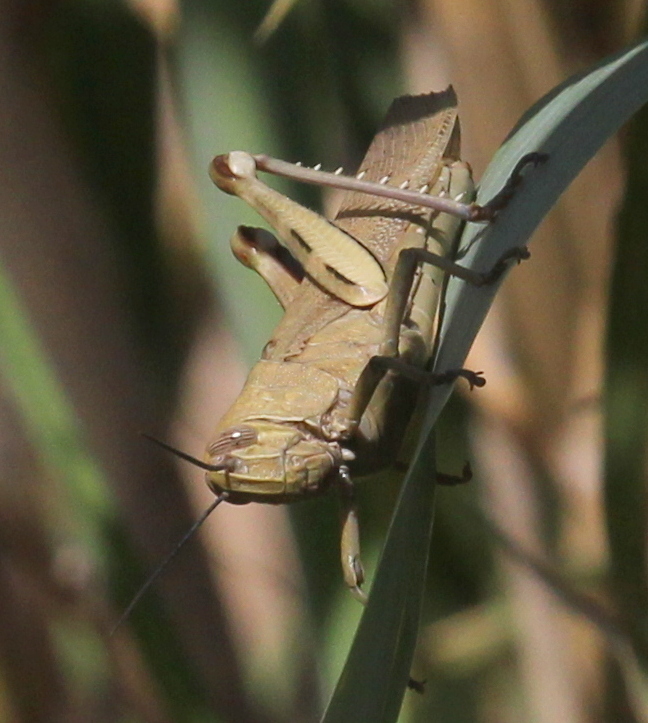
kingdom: Animalia
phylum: Arthropoda
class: Insecta
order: Orthoptera
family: Acrididae
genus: Anacridium
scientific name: Anacridium aegyptium
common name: Egyptian grasshopper
